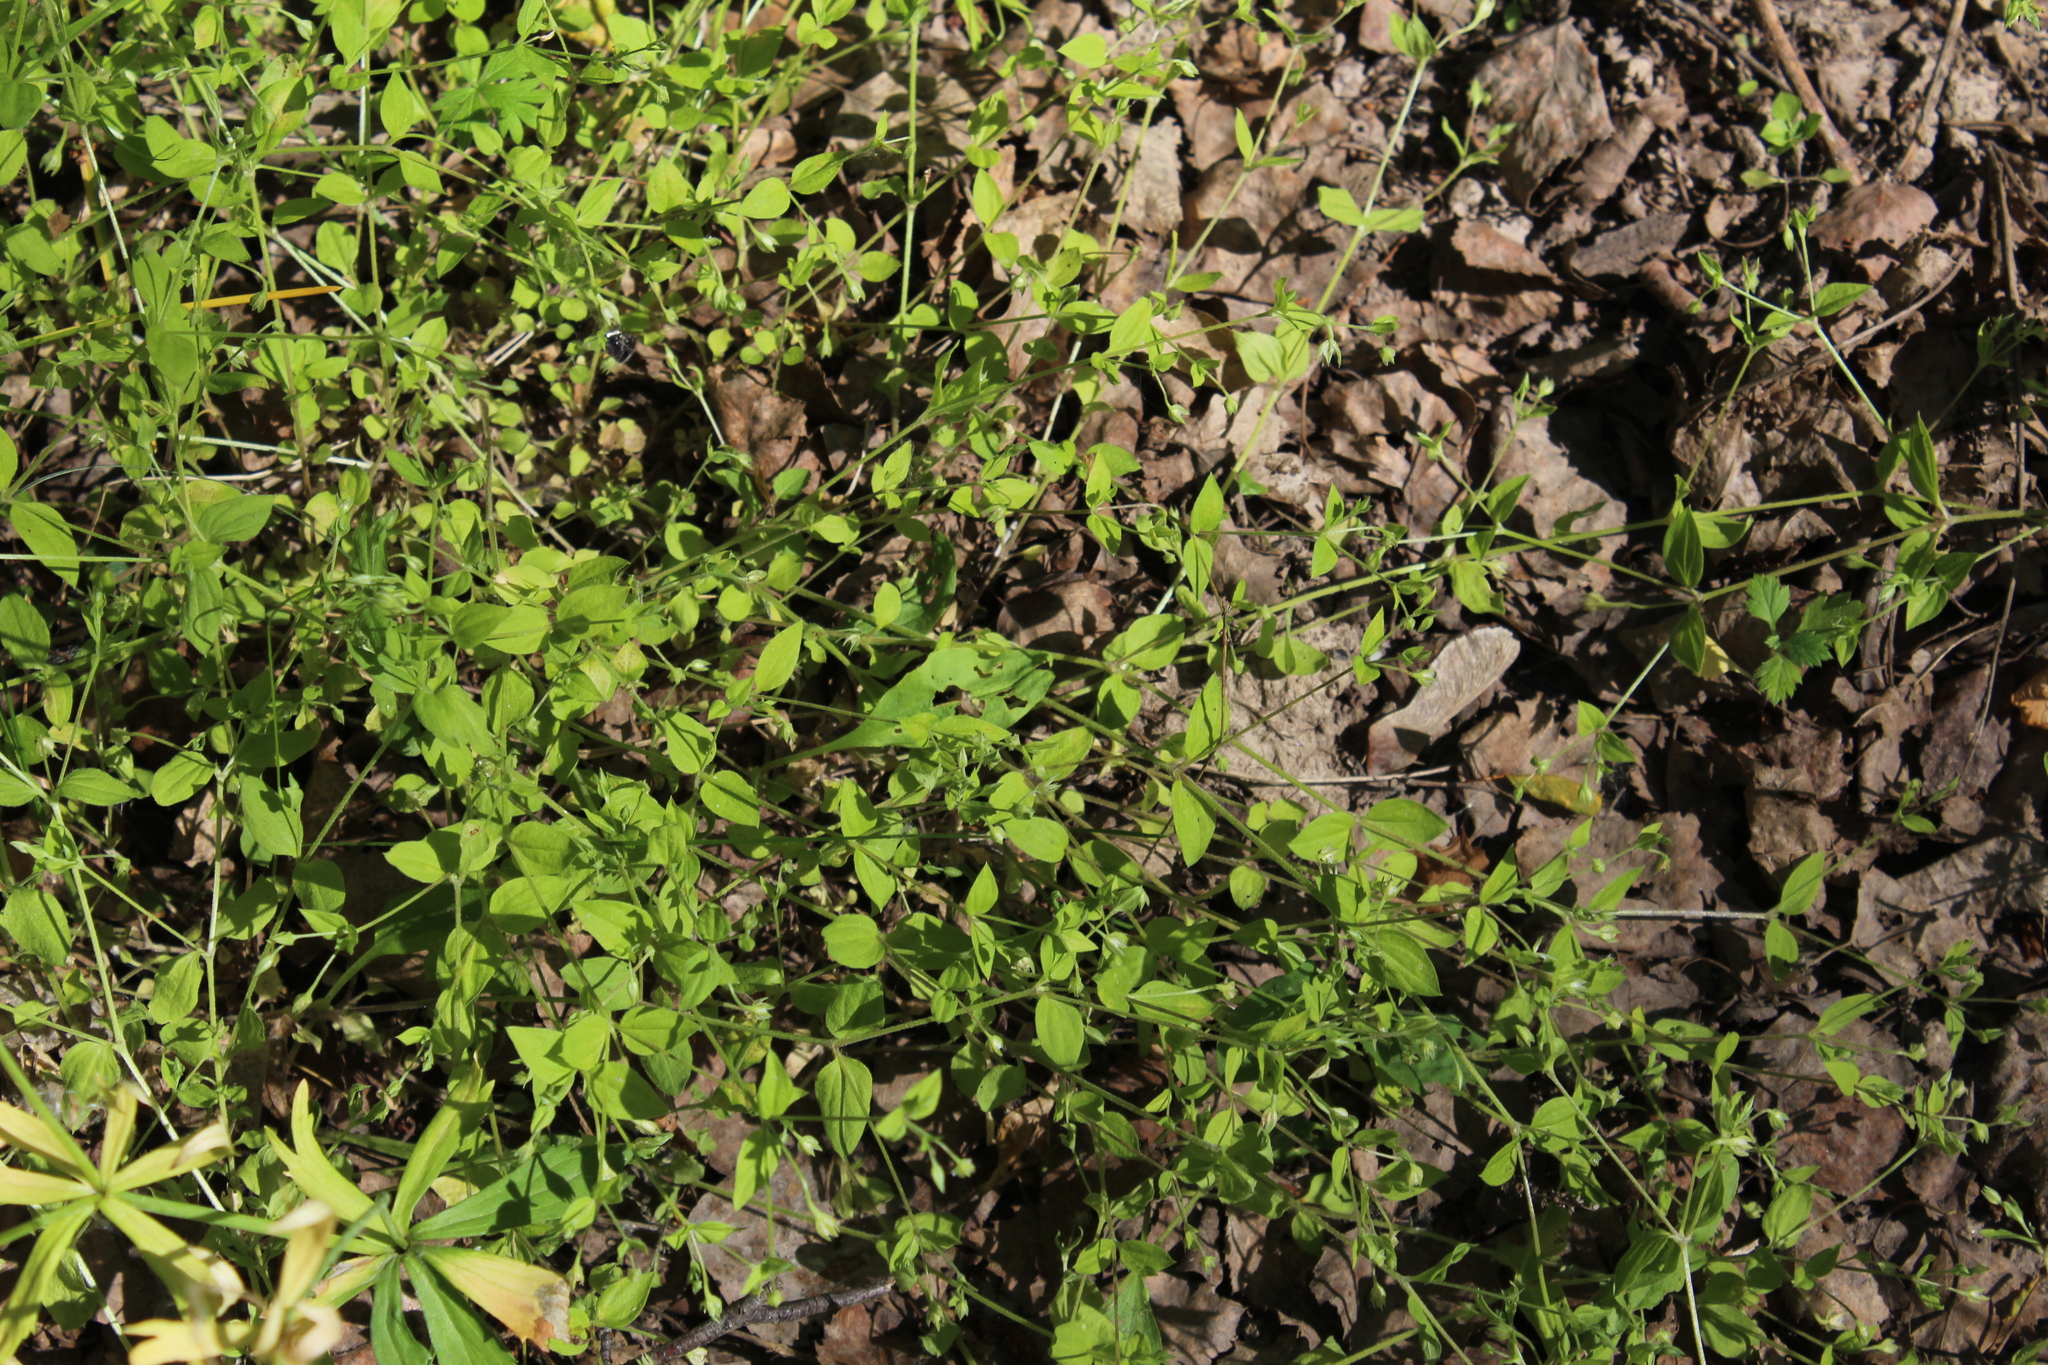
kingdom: Plantae
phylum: Tracheophyta
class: Magnoliopsida
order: Caryophyllales
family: Caryophyllaceae
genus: Moehringia
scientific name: Moehringia trinervia
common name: Three-nerved sandwort
